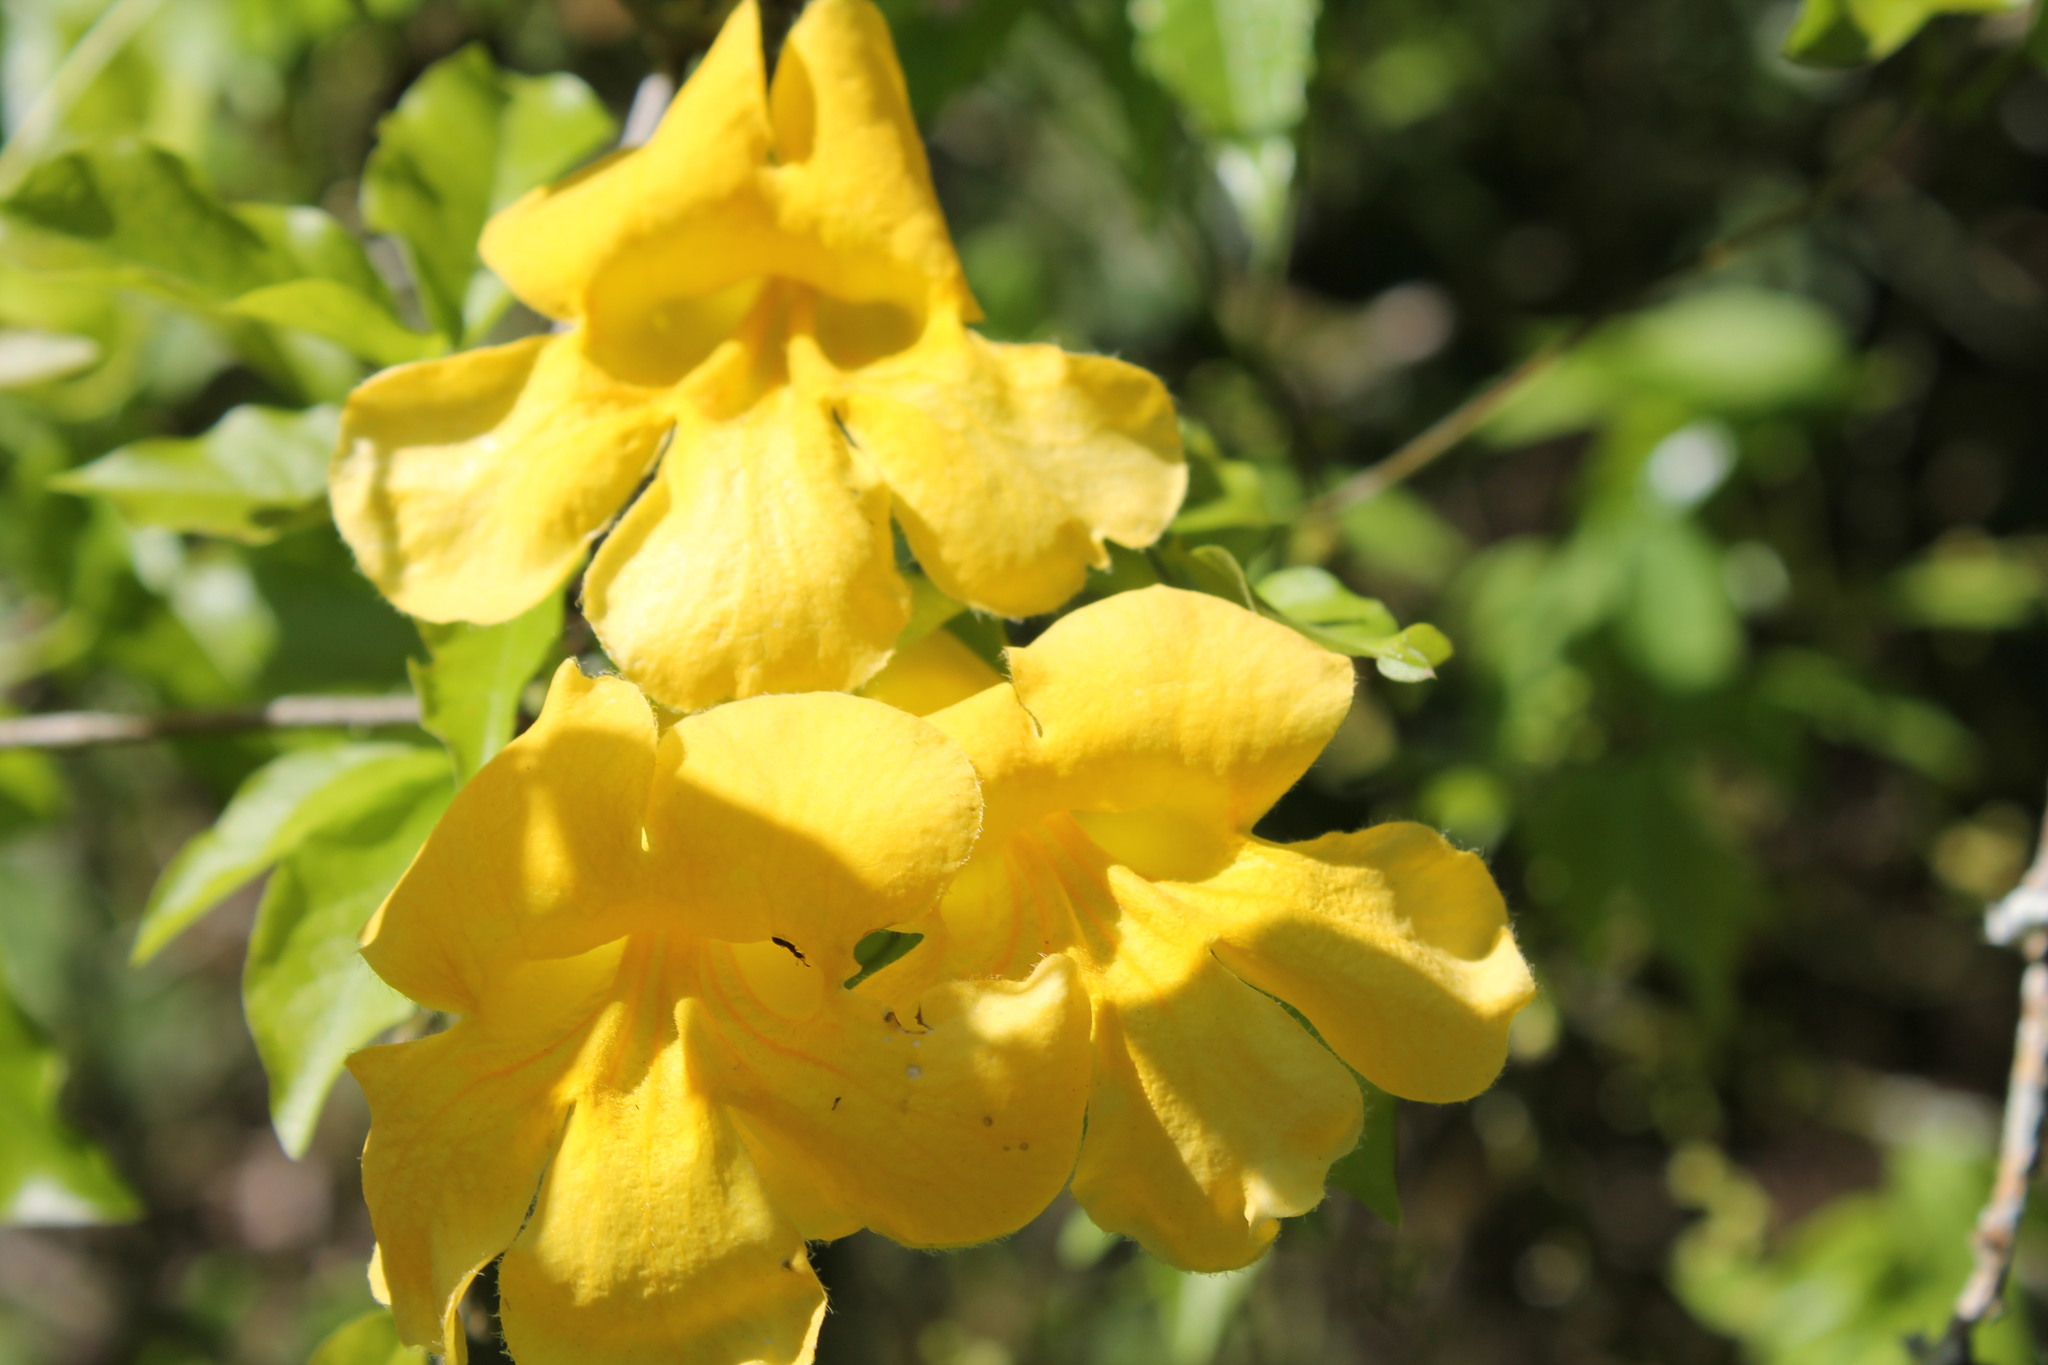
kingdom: Plantae
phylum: Tracheophyta
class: Magnoliopsida
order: Lamiales
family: Bignoniaceae
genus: Dolichandra
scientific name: Dolichandra unguis-cati
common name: Catclaw vine
